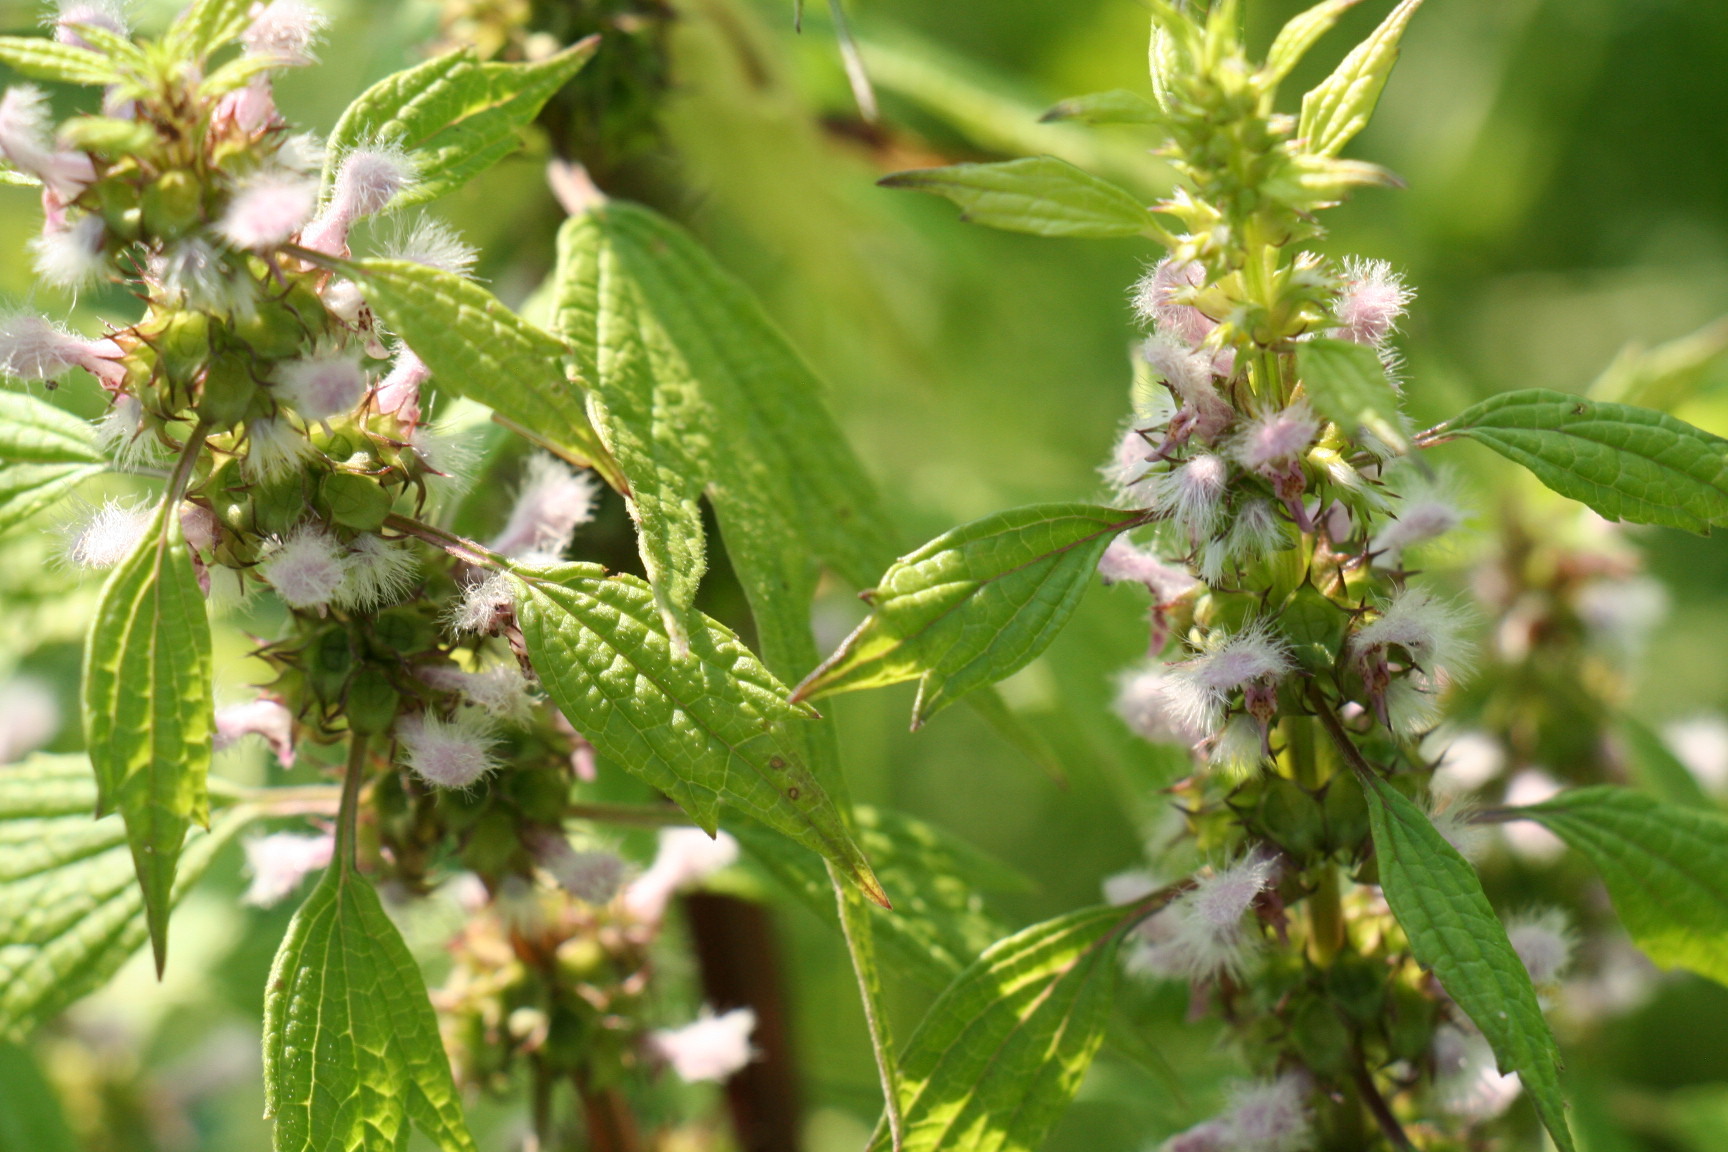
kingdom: Plantae
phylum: Tracheophyta
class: Magnoliopsida
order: Lamiales
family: Lamiaceae
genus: Leonurus
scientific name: Leonurus cardiaca
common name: Motherwort
